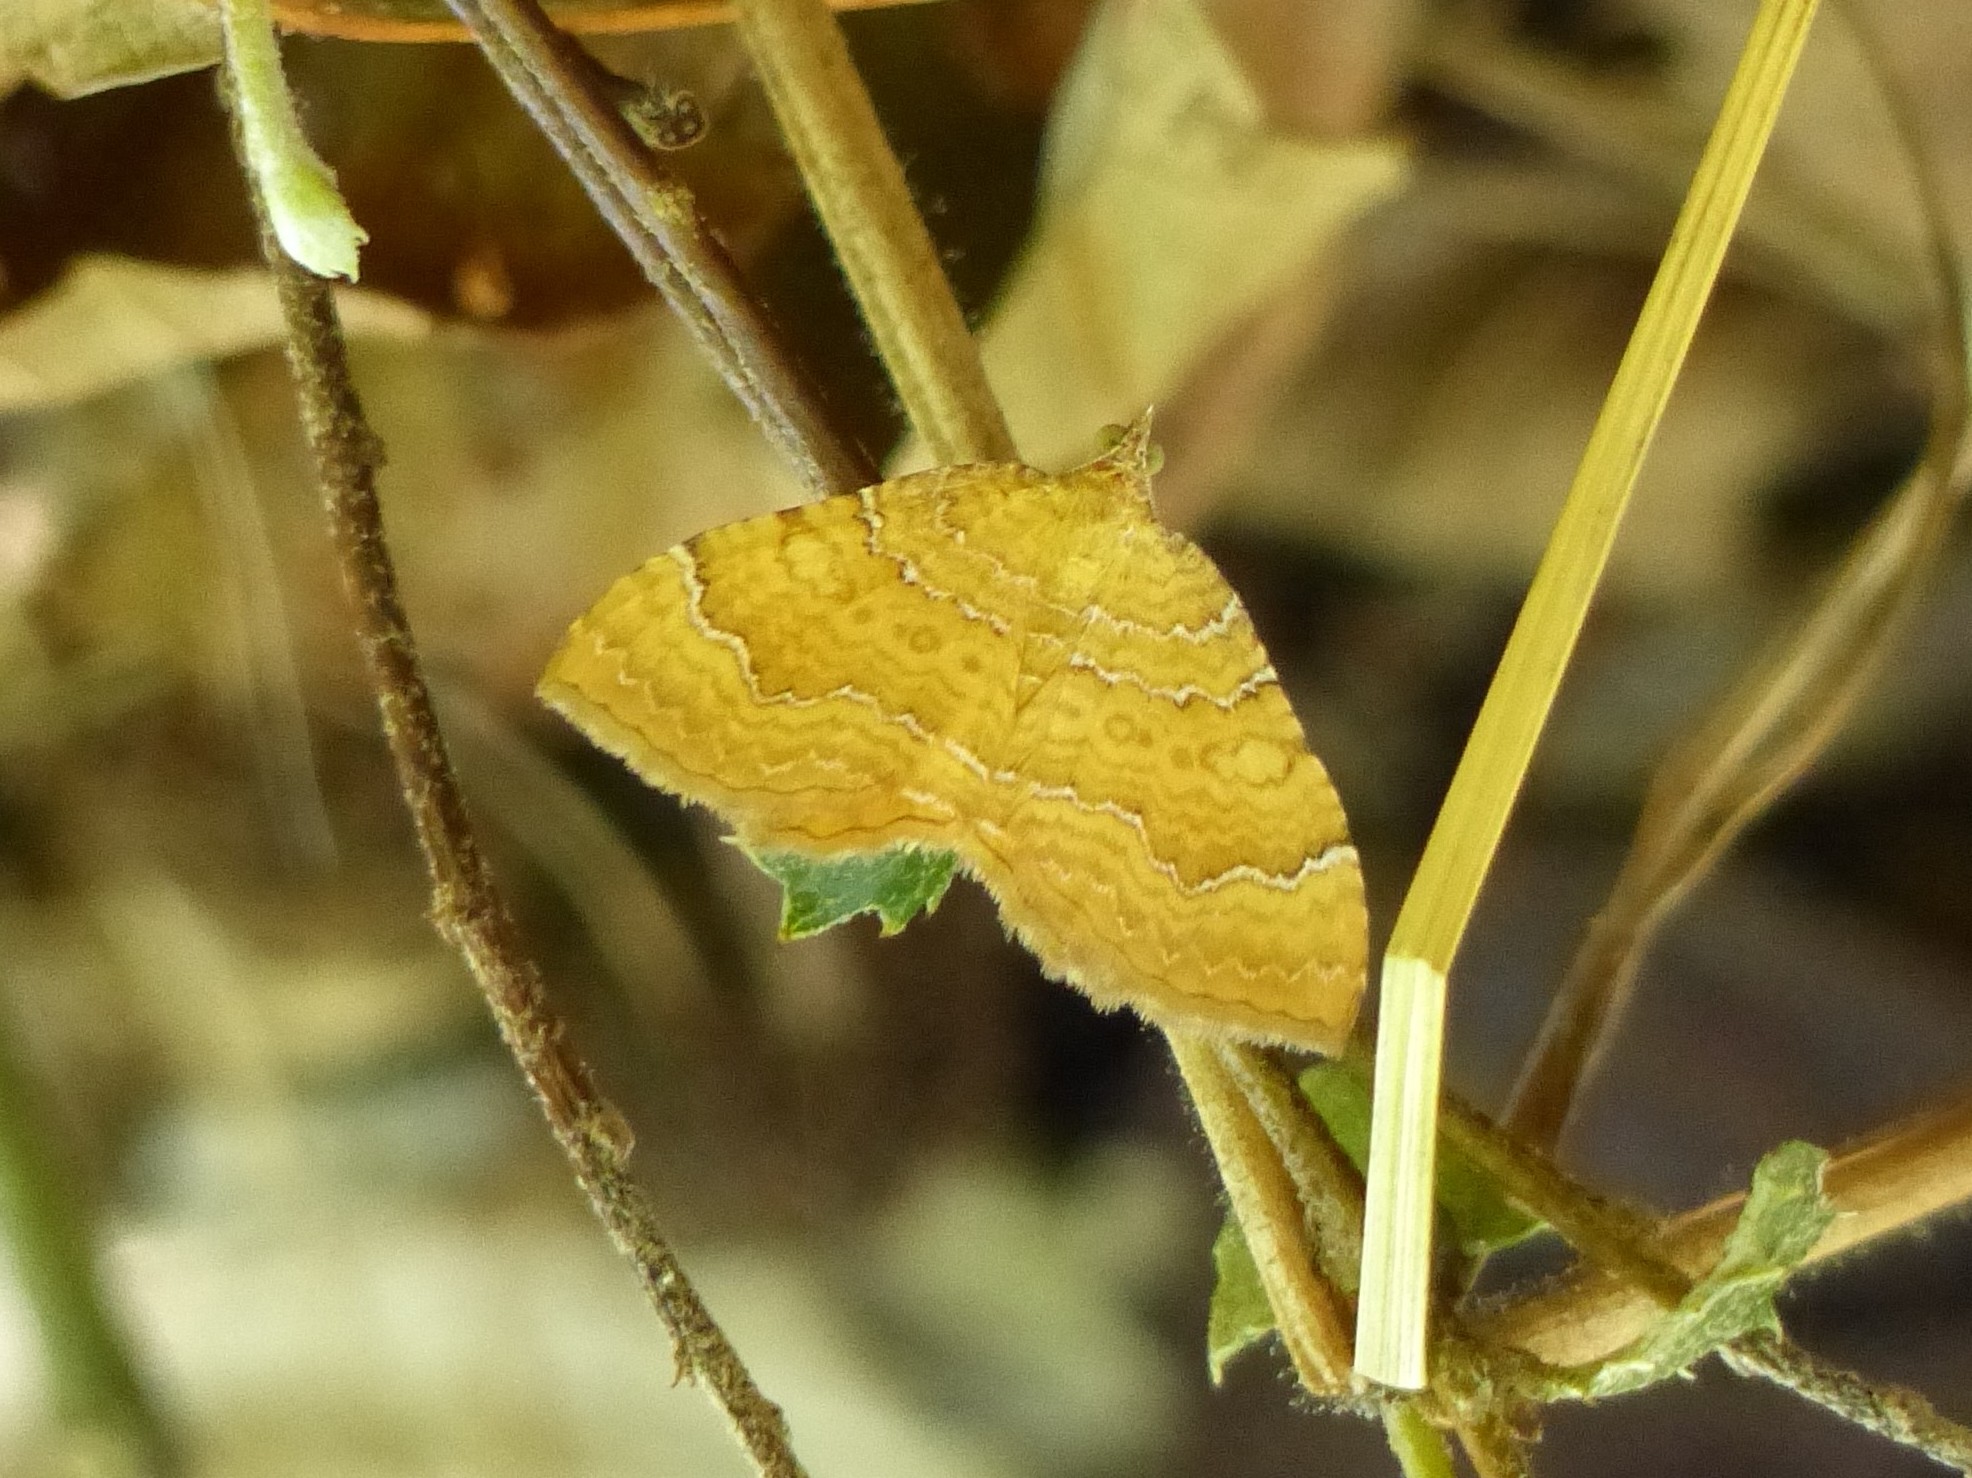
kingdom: Animalia
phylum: Arthropoda
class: Insecta
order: Lepidoptera
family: Geometridae
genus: Camptogramma
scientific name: Camptogramma bilineata
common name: Yellow shell
